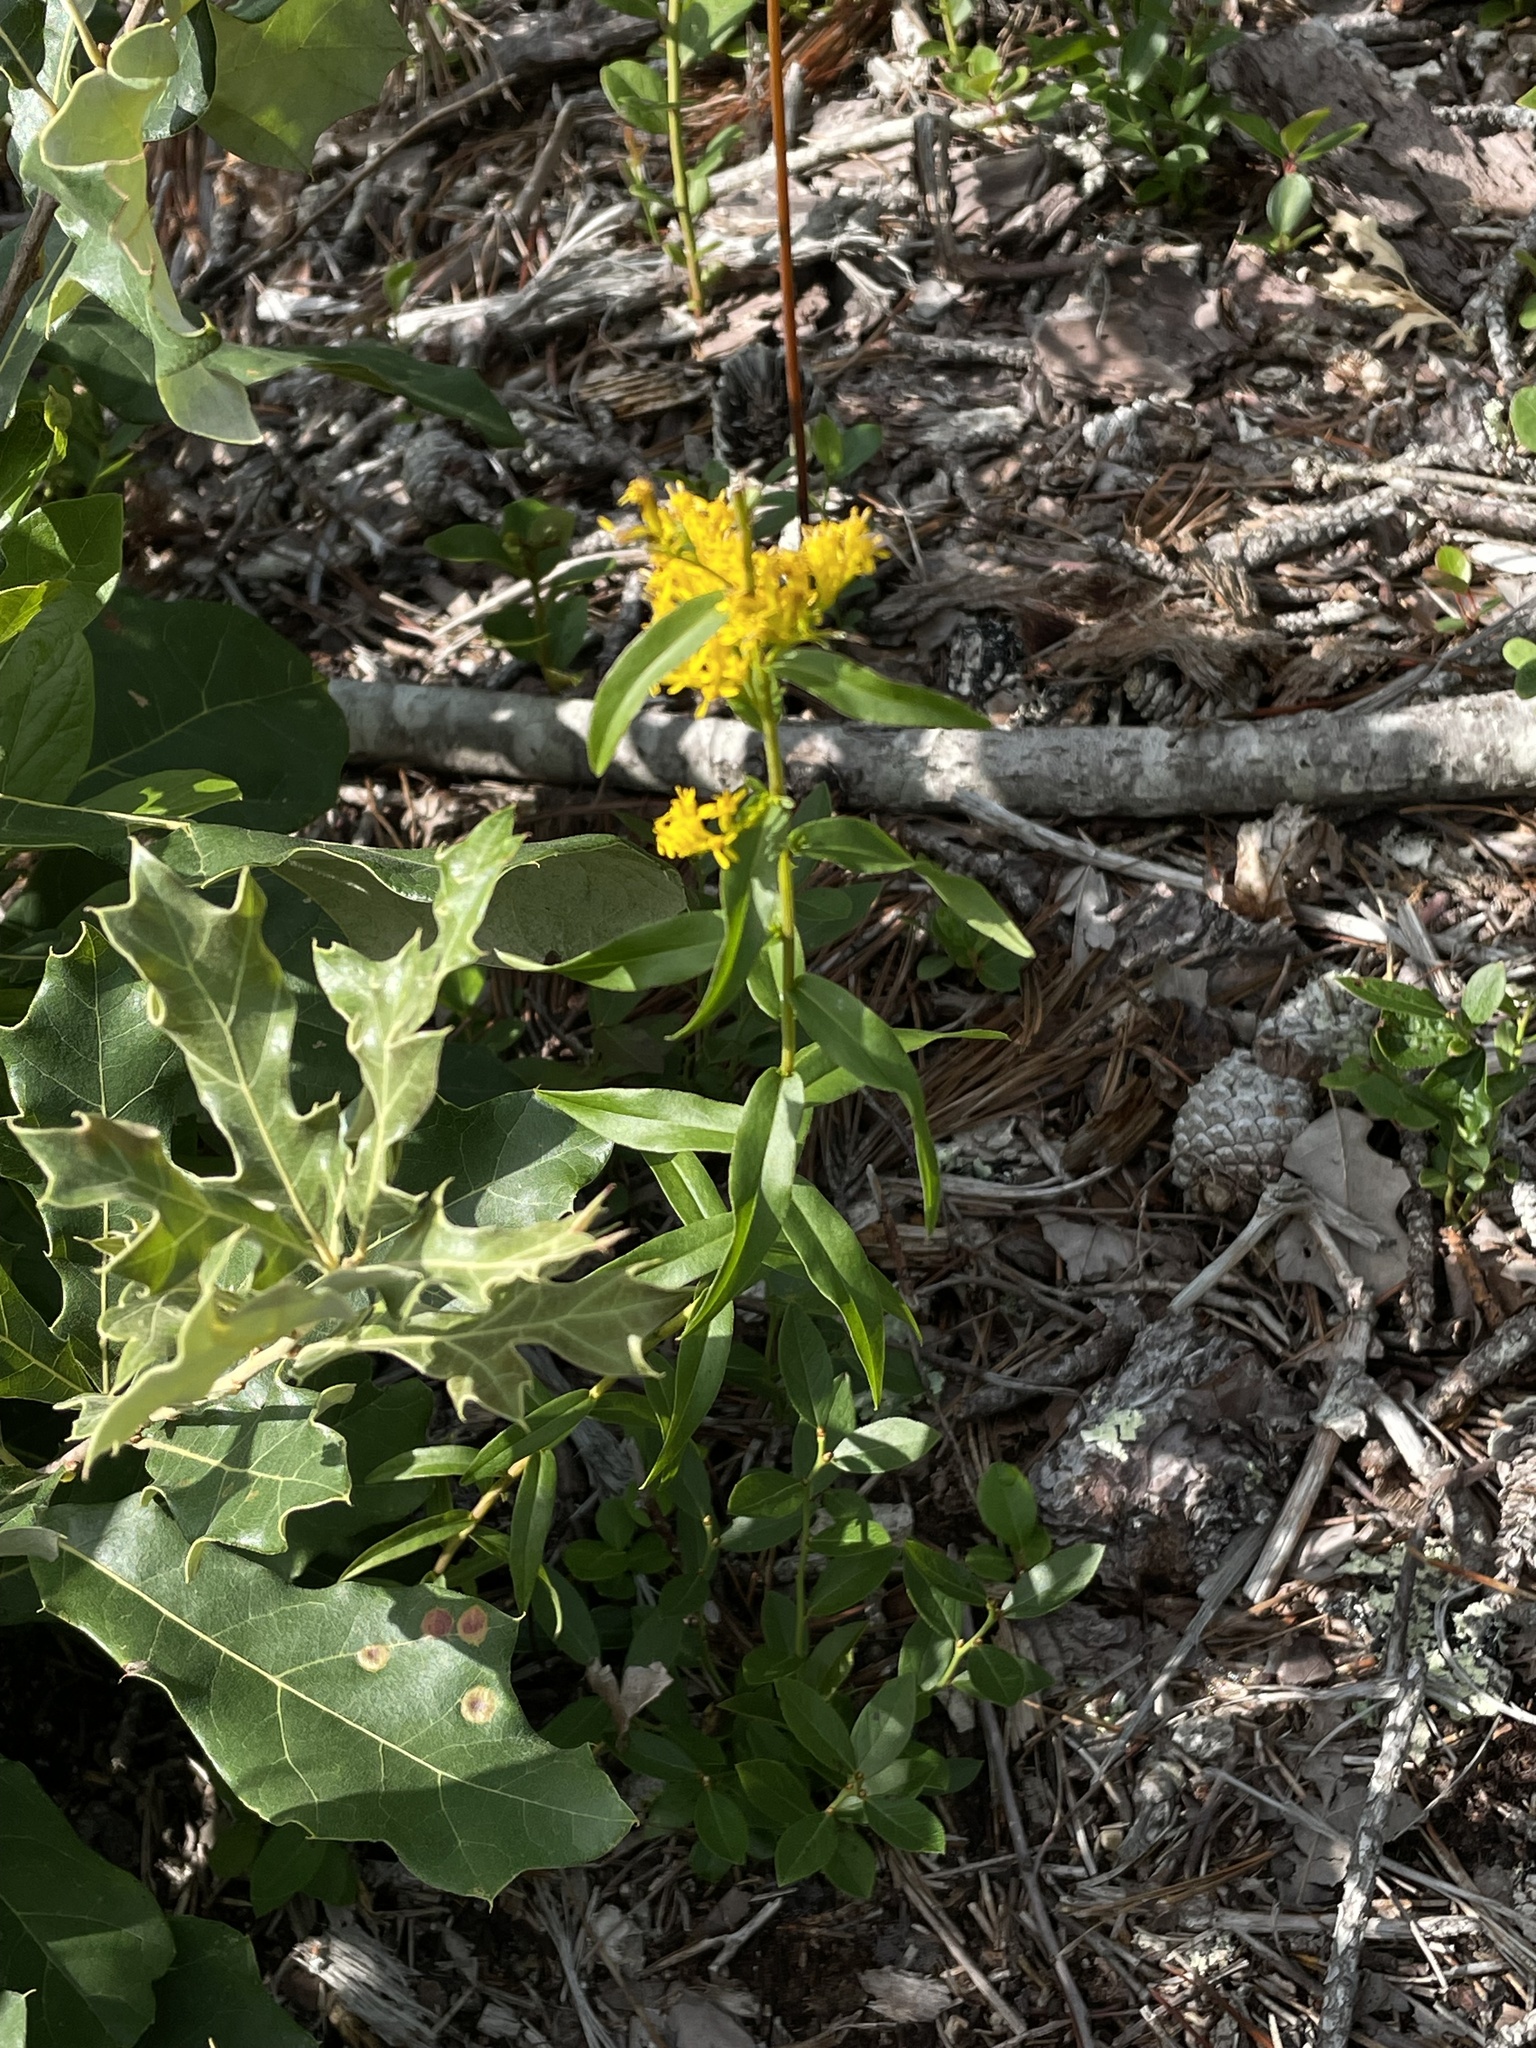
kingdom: Plantae
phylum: Tracheophyta
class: Magnoliopsida
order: Asterales
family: Asteraceae
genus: Solidago
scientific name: Solidago odora
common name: Anise-scented goldenrod
